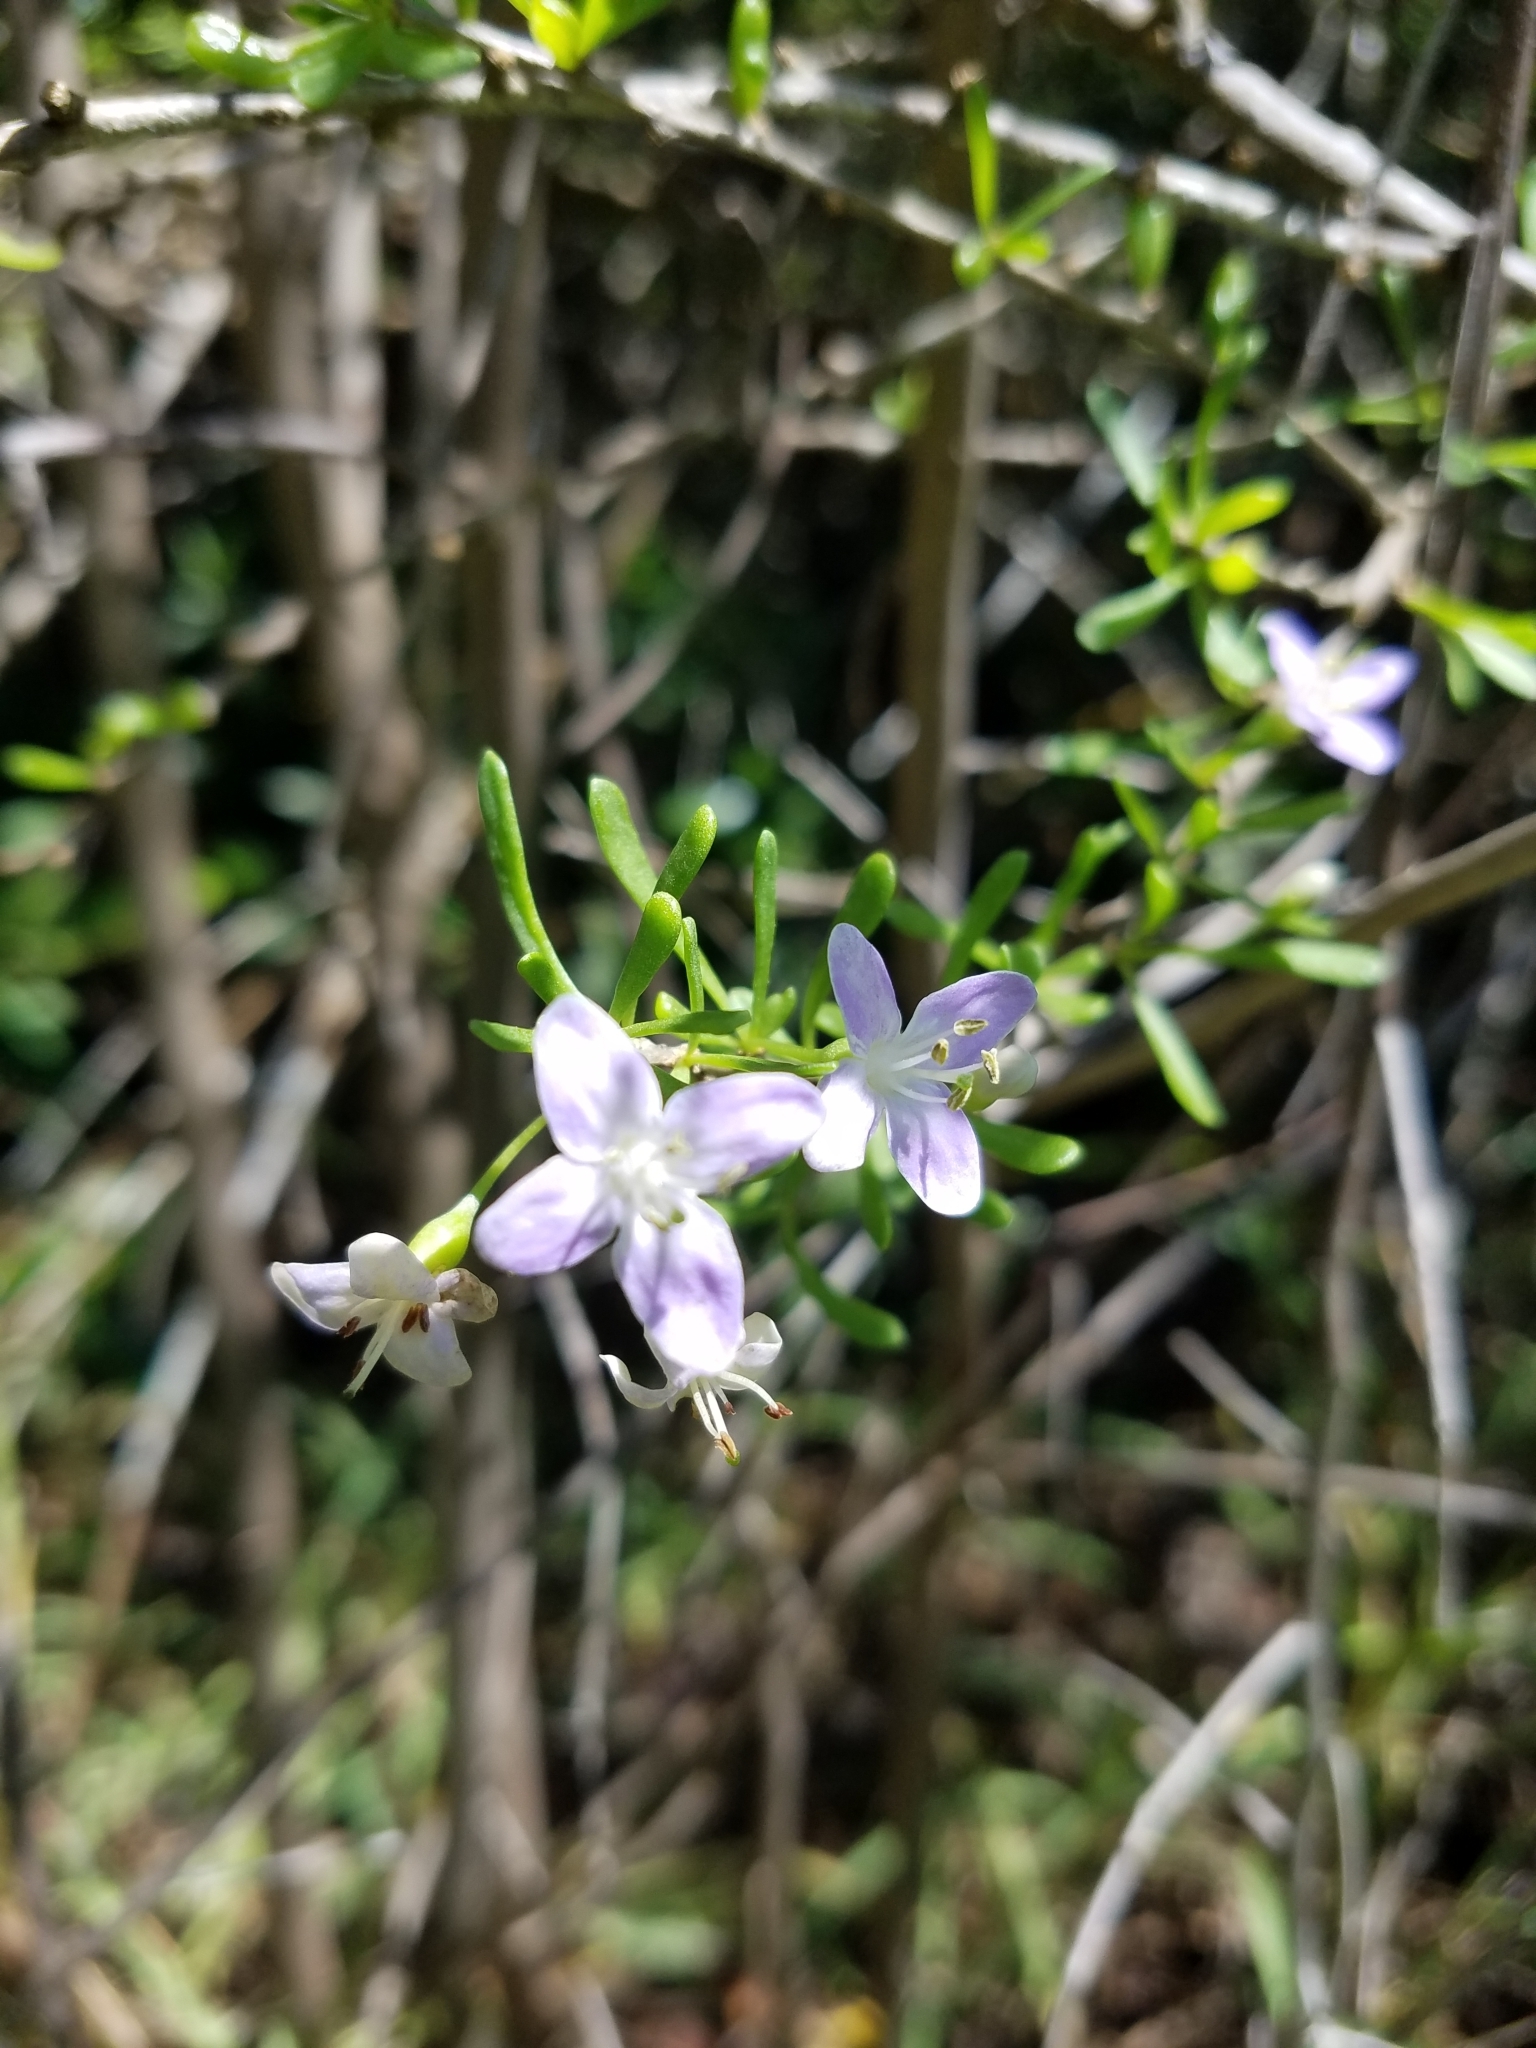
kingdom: Plantae
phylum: Tracheophyta
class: Magnoliopsida
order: Solanales
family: Solanaceae
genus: Lycium
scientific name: Lycium carolinianum
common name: Christmasberry
